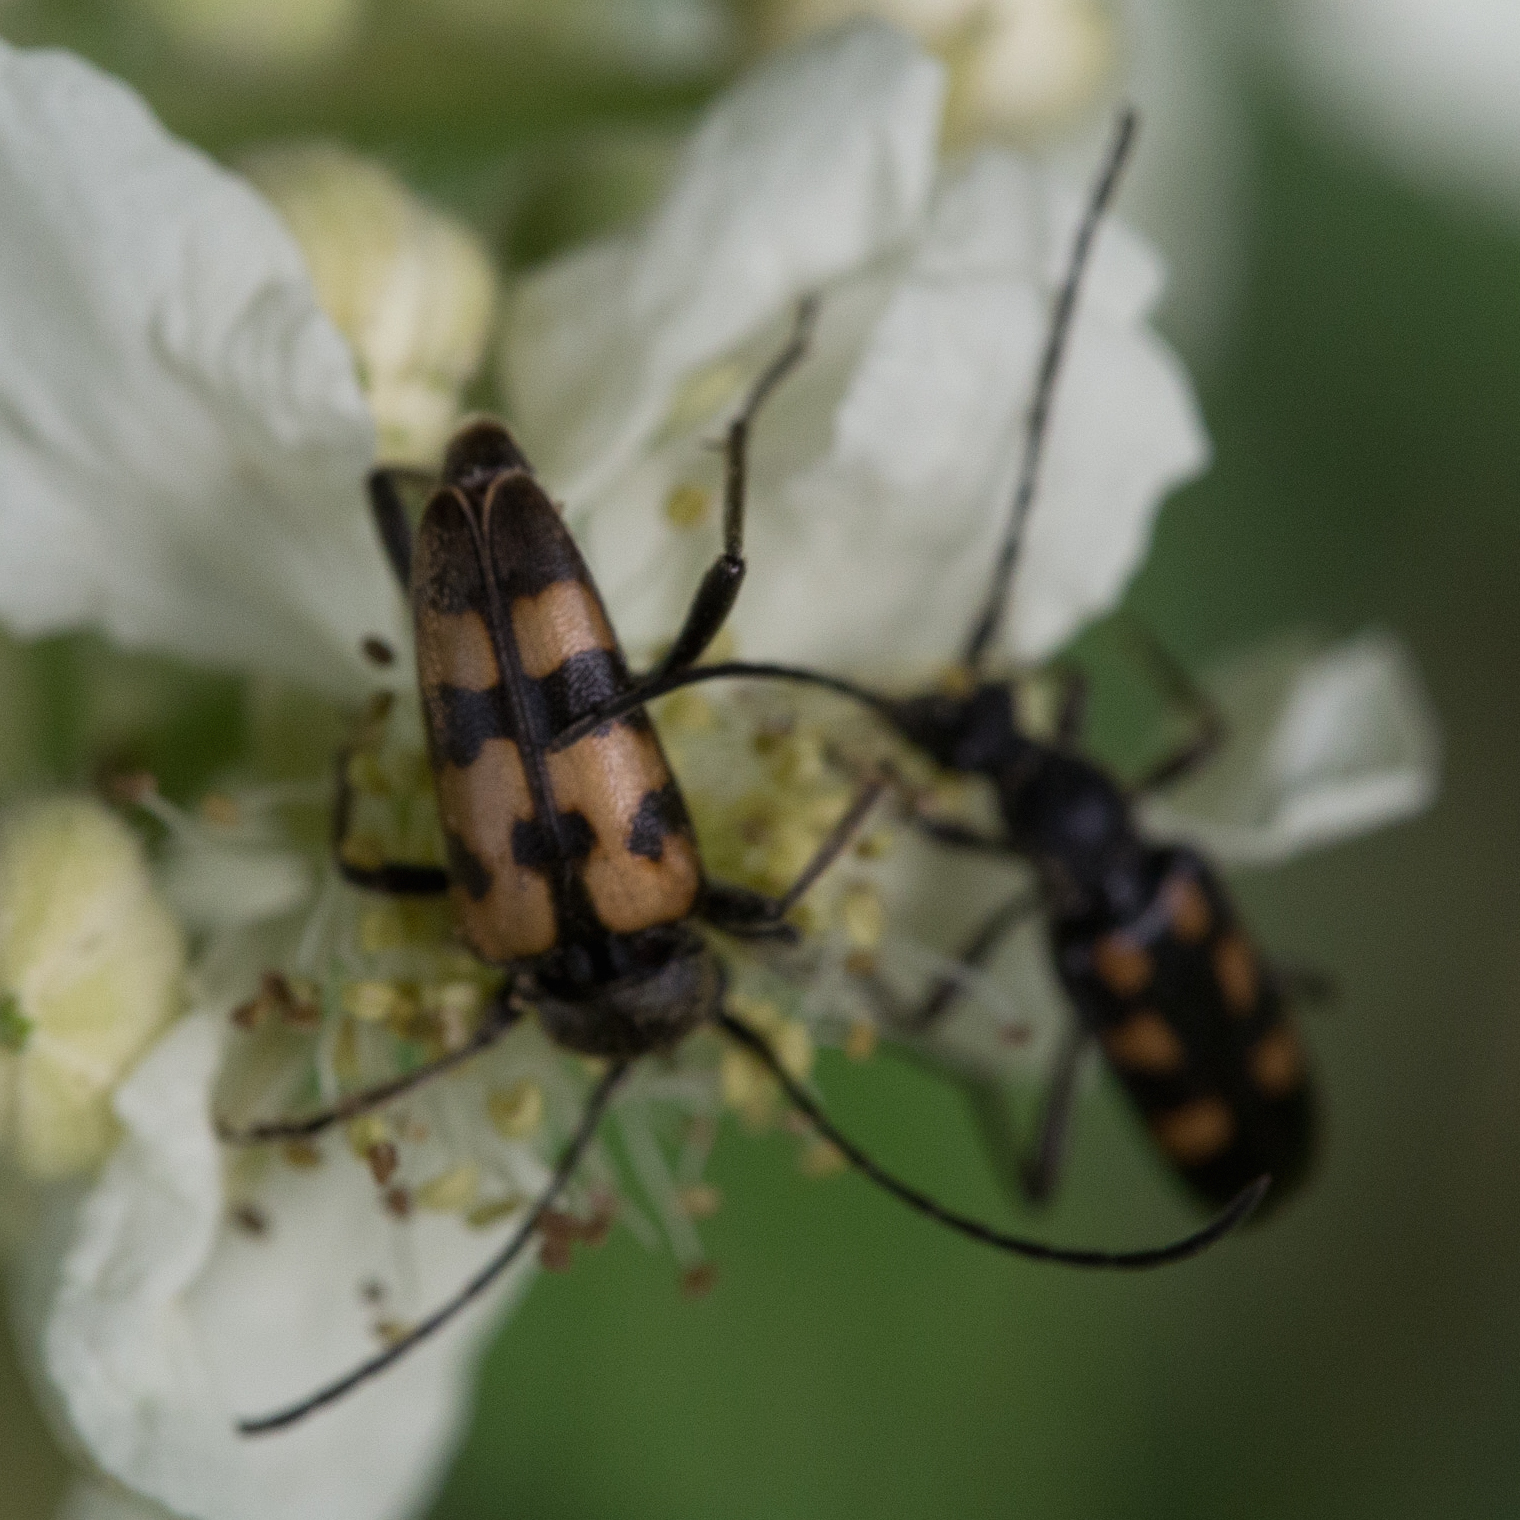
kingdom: Animalia
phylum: Arthropoda
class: Insecta
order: Coleoptera
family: Cerambycidae
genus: Pachytodes
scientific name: Pachytodes
